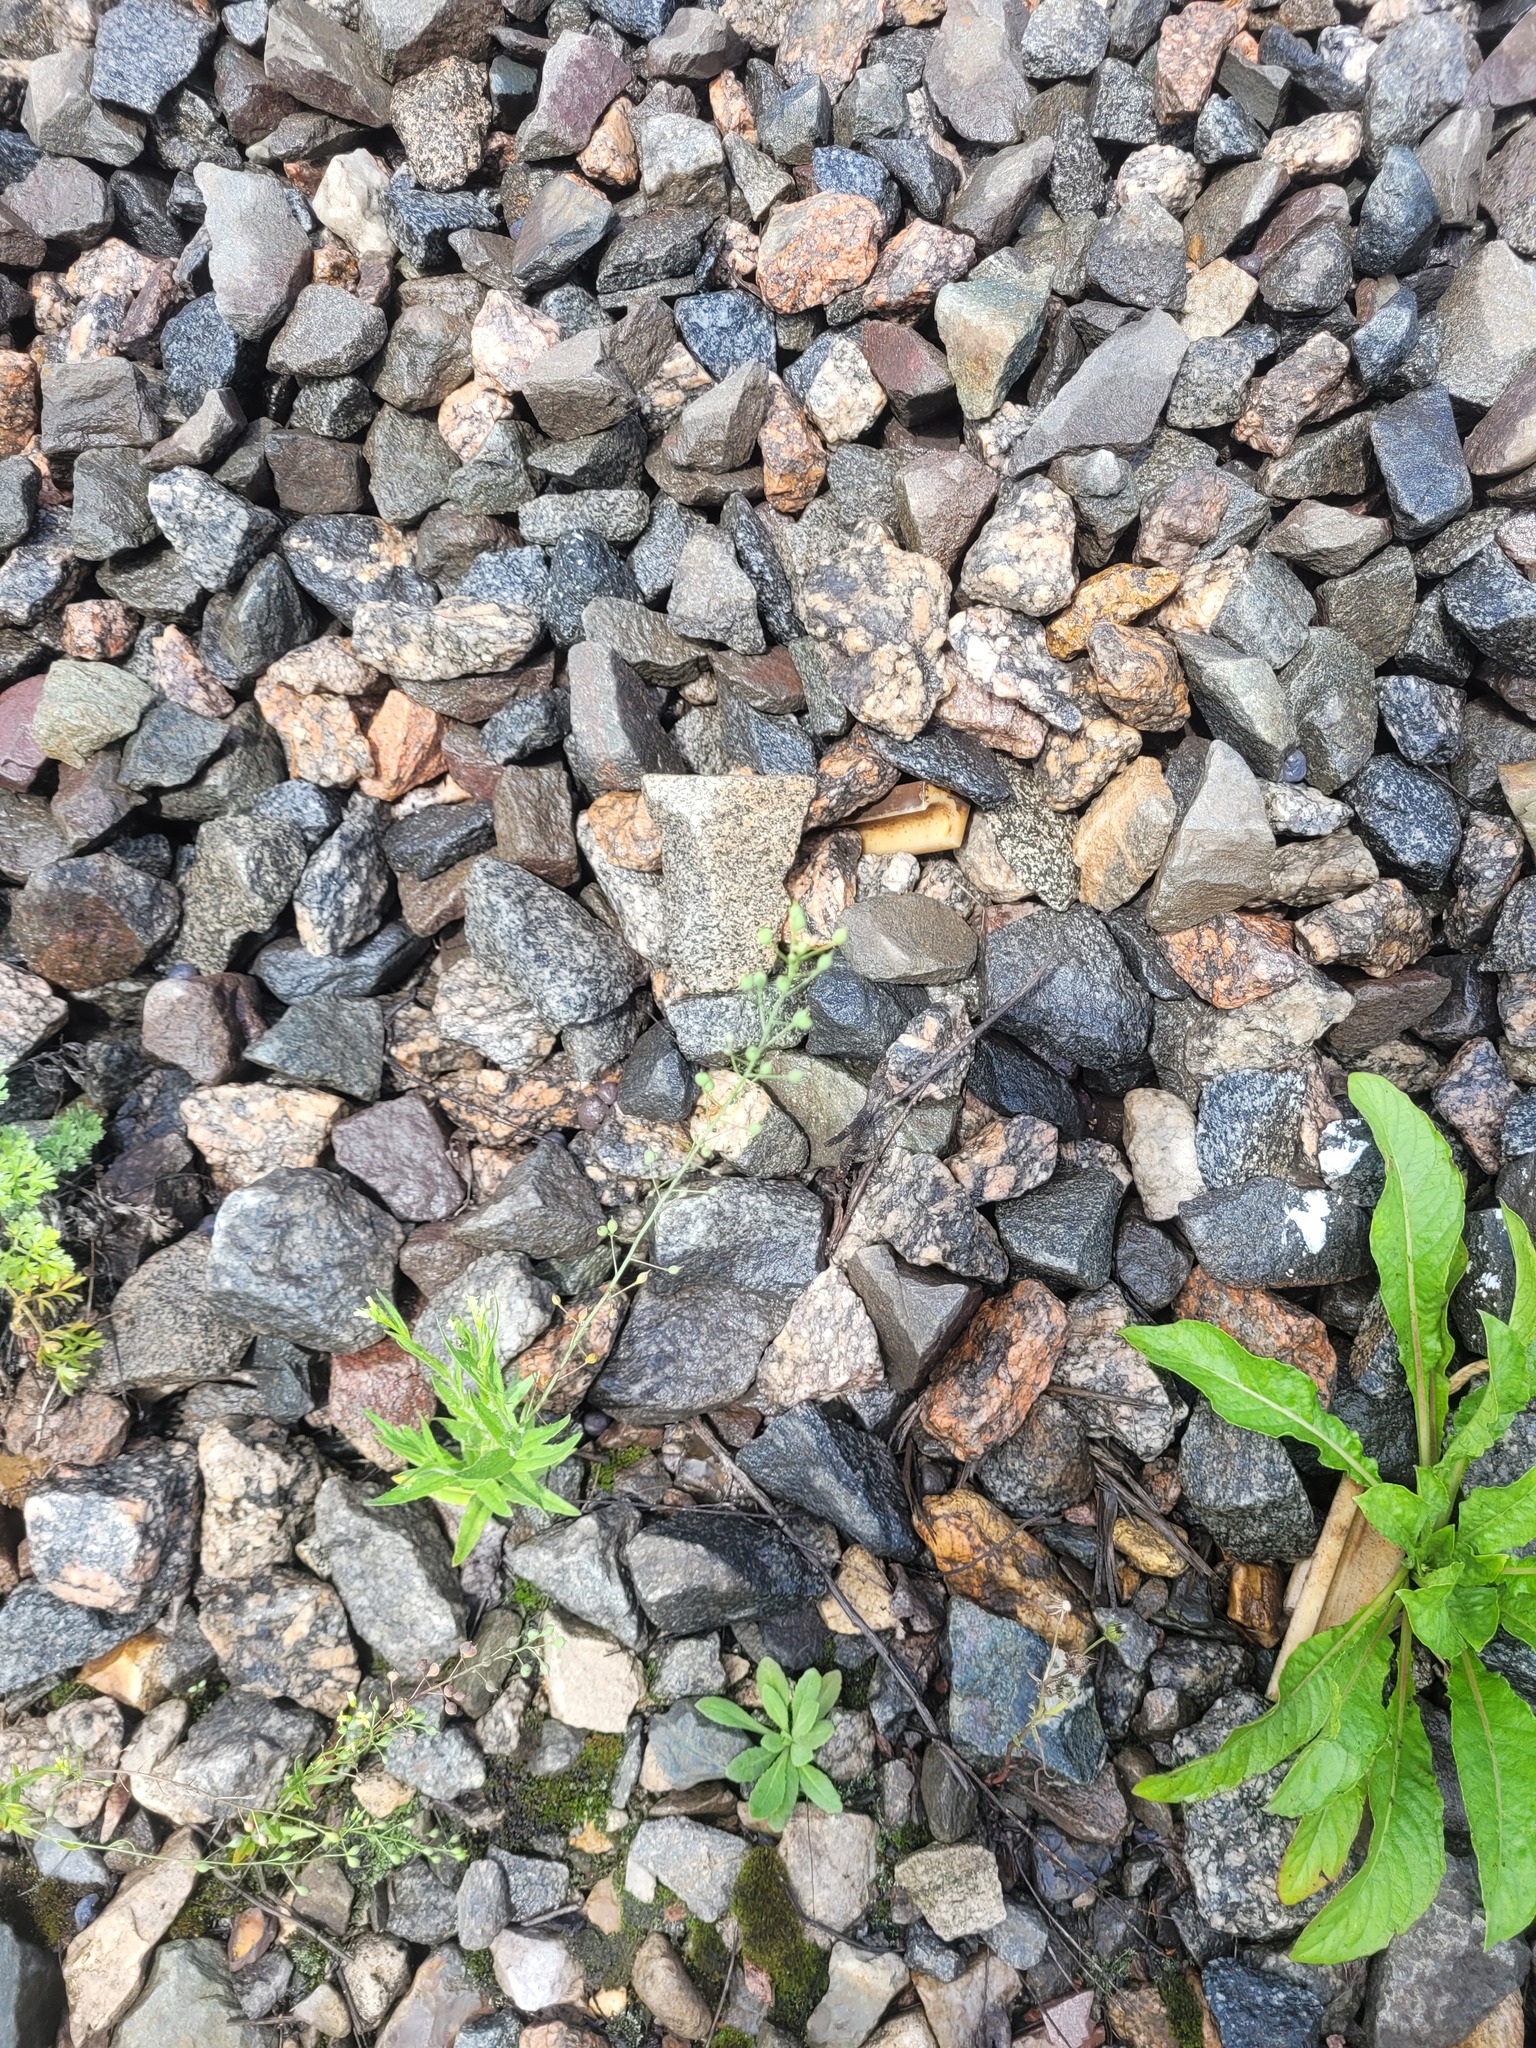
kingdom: Plantae
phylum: Tracheophyta
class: Magnoliopsida
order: Brassicales
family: Brassicaceae
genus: Camelina
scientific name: Camelina microcarpa
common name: Lesser gold-of-pleasure
